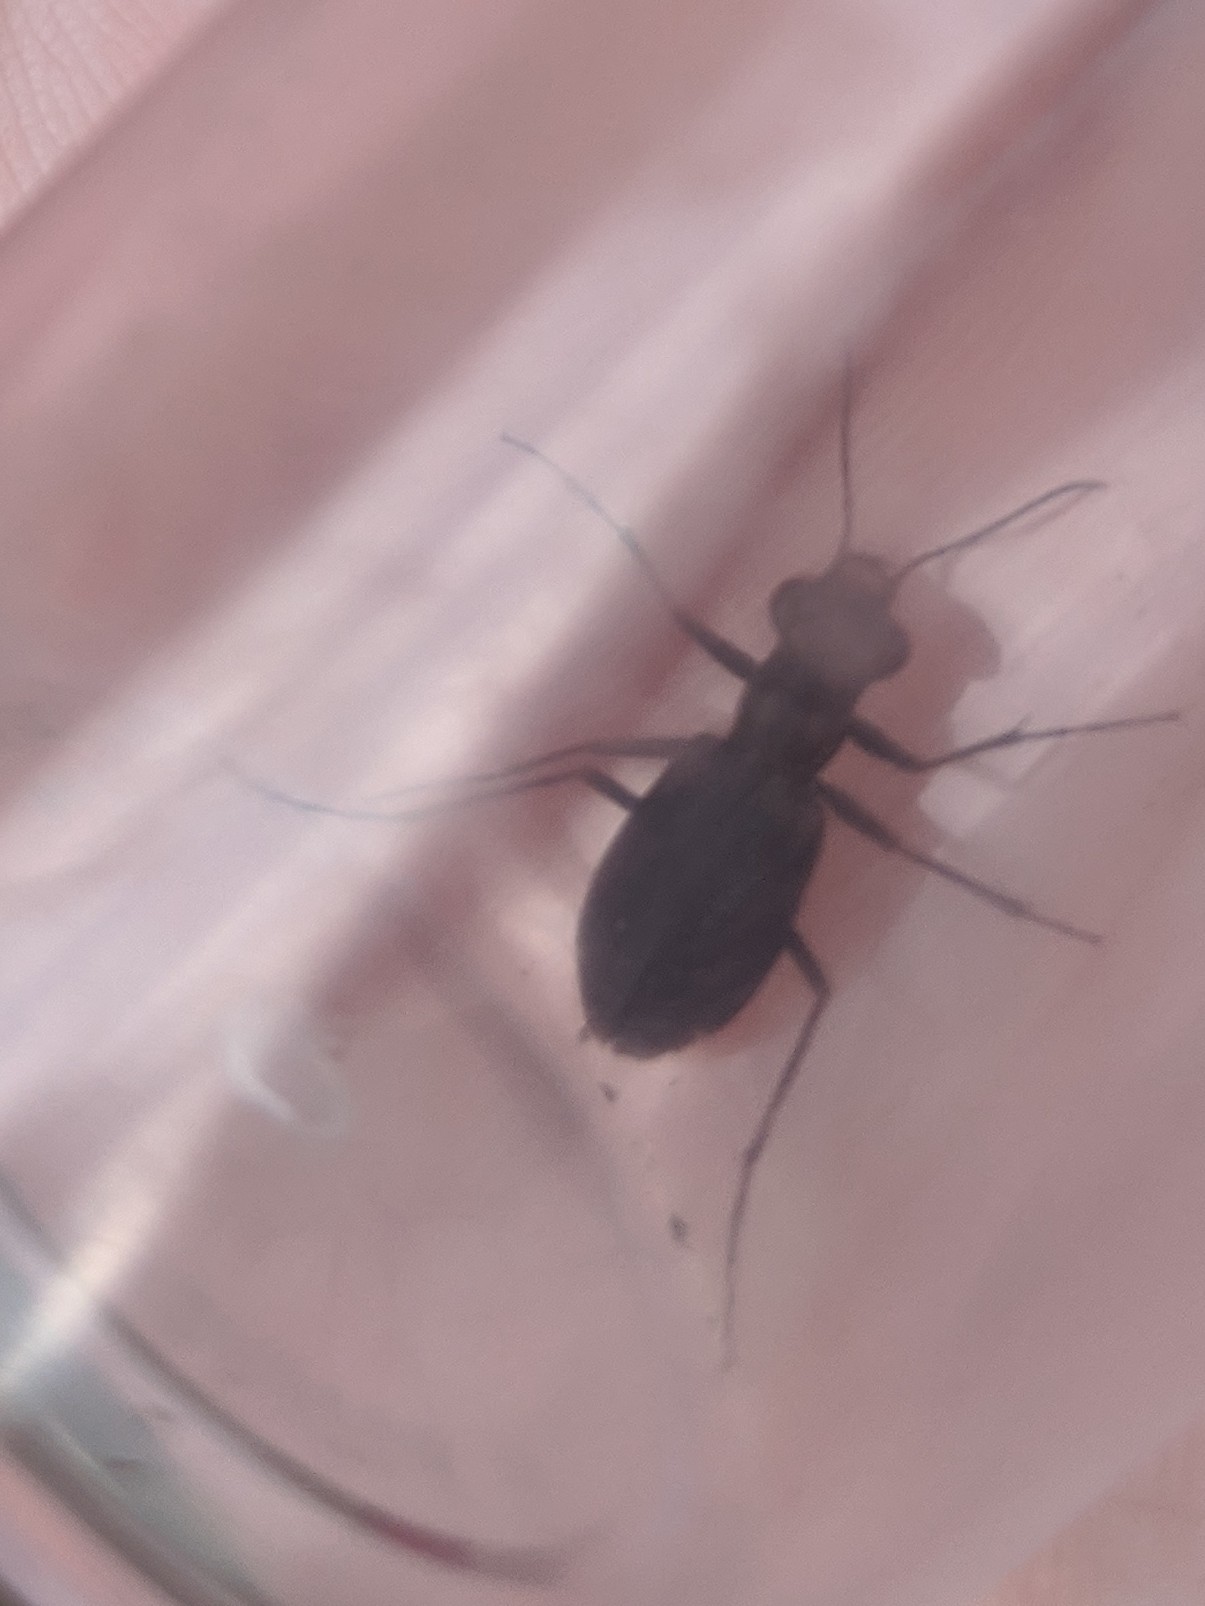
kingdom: Animalia
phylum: Arthropoda
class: Insecta
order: Coleoptera
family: Carabidae
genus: Cicindela
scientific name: Cicindela punctulata
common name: Punctured tiger beetle
